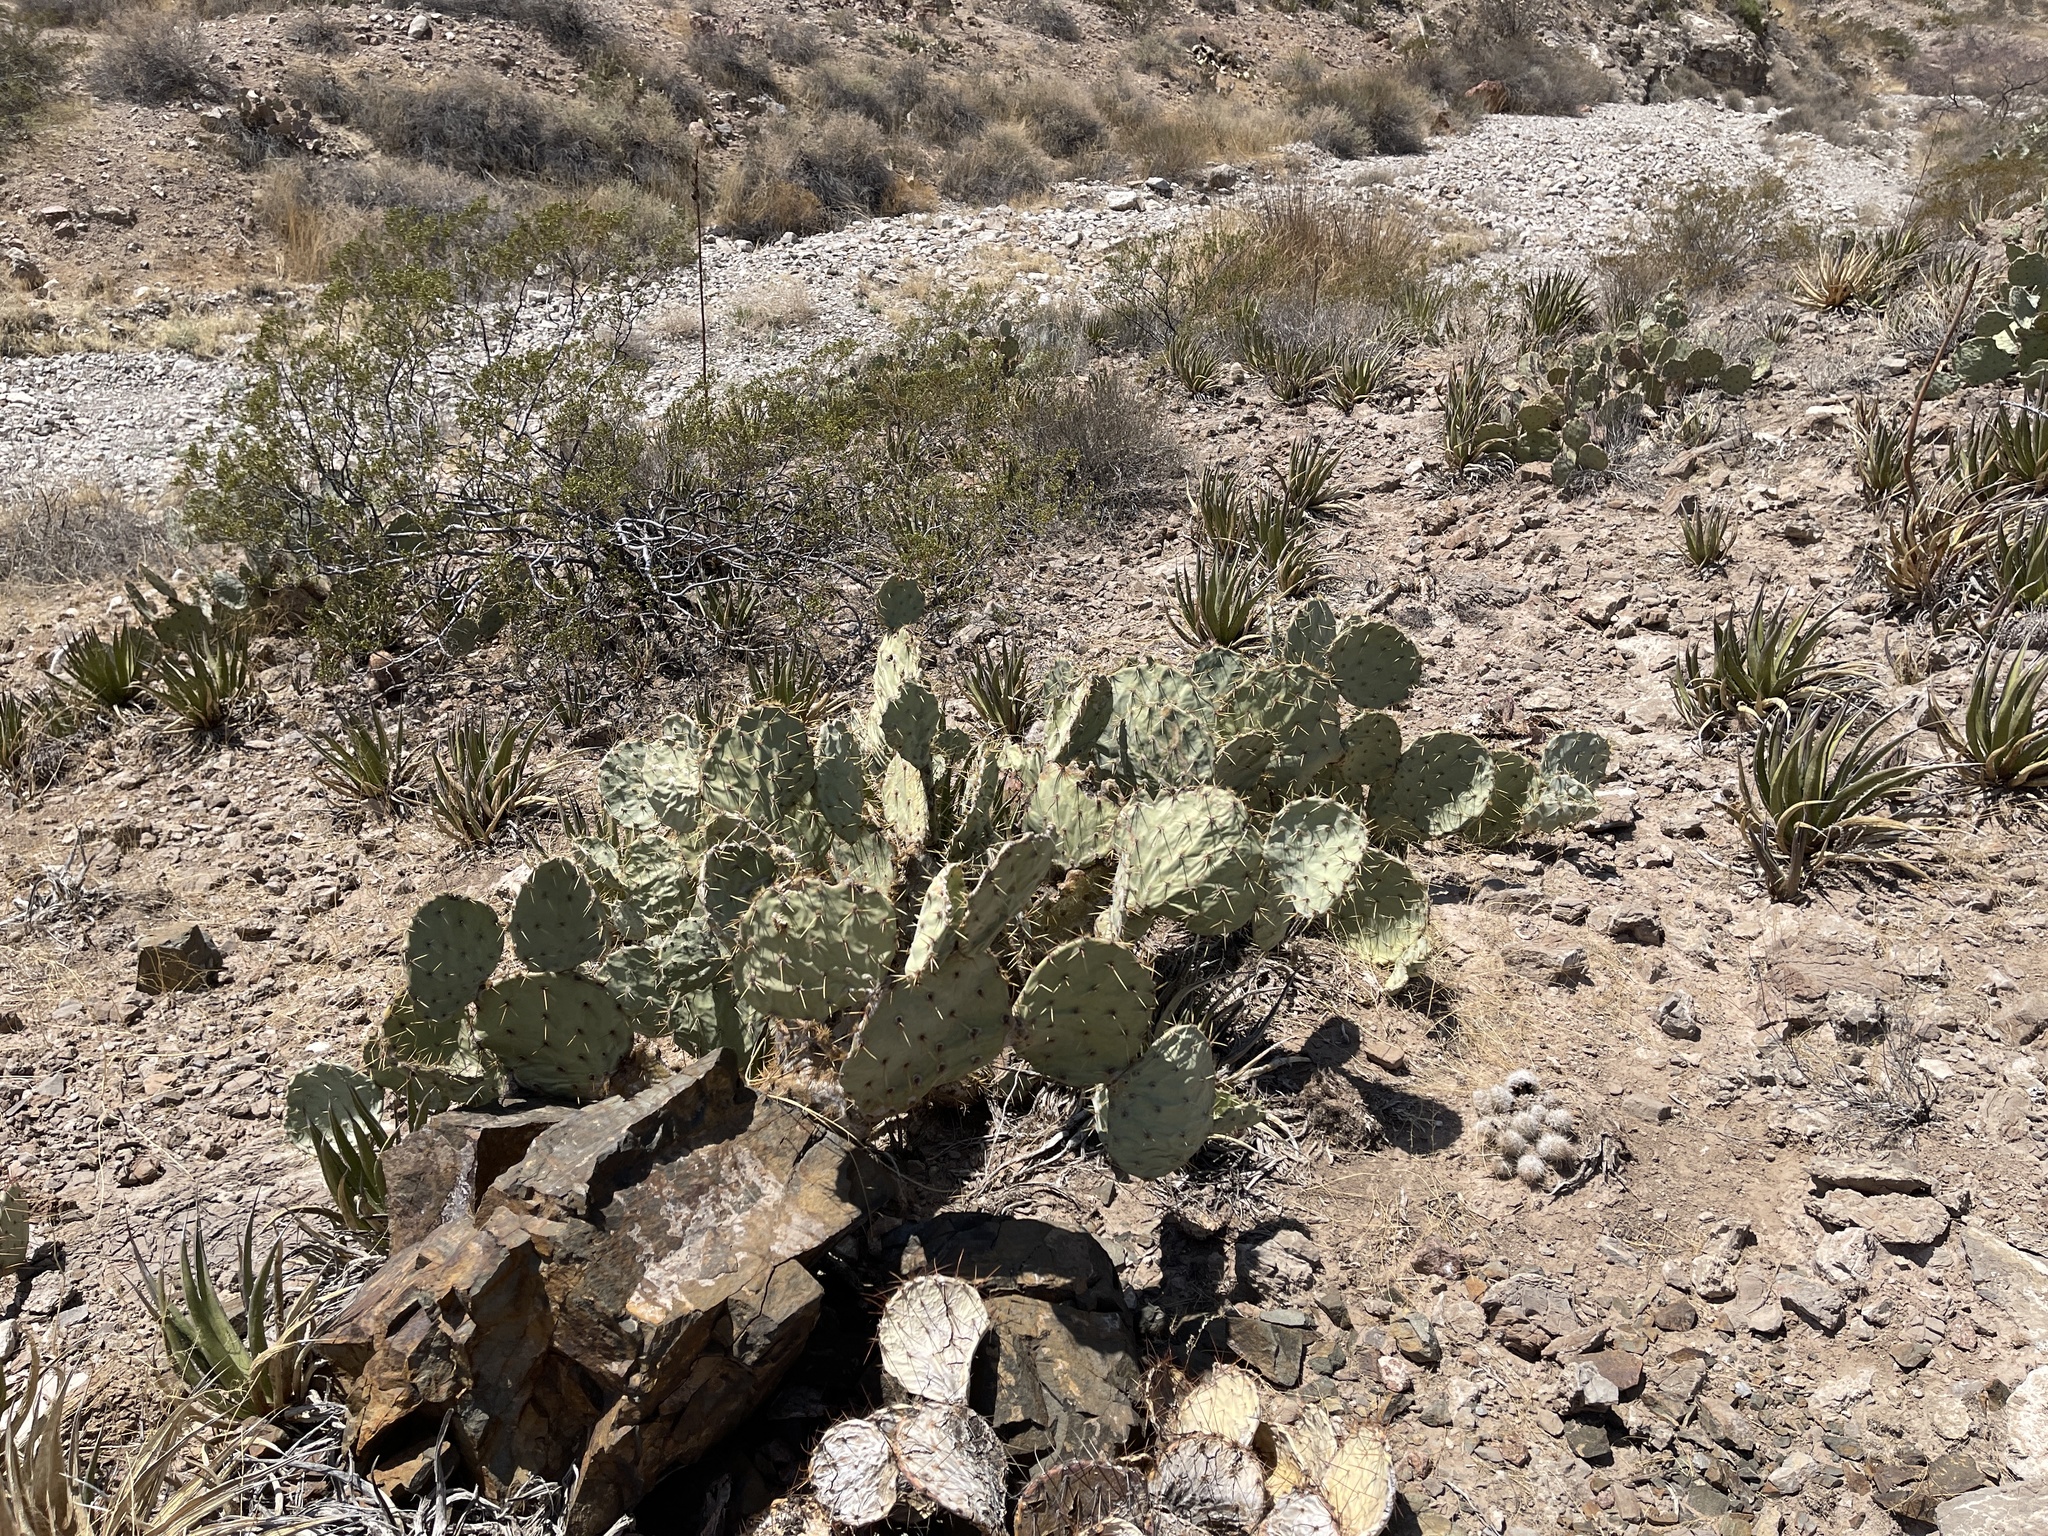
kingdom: Plantae
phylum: Tracheophyta
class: Magnoliopsida
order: Caryophyllales
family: Cactaceae
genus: Opuntia
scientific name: Opuntia engelmannii
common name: Cactus-apple
